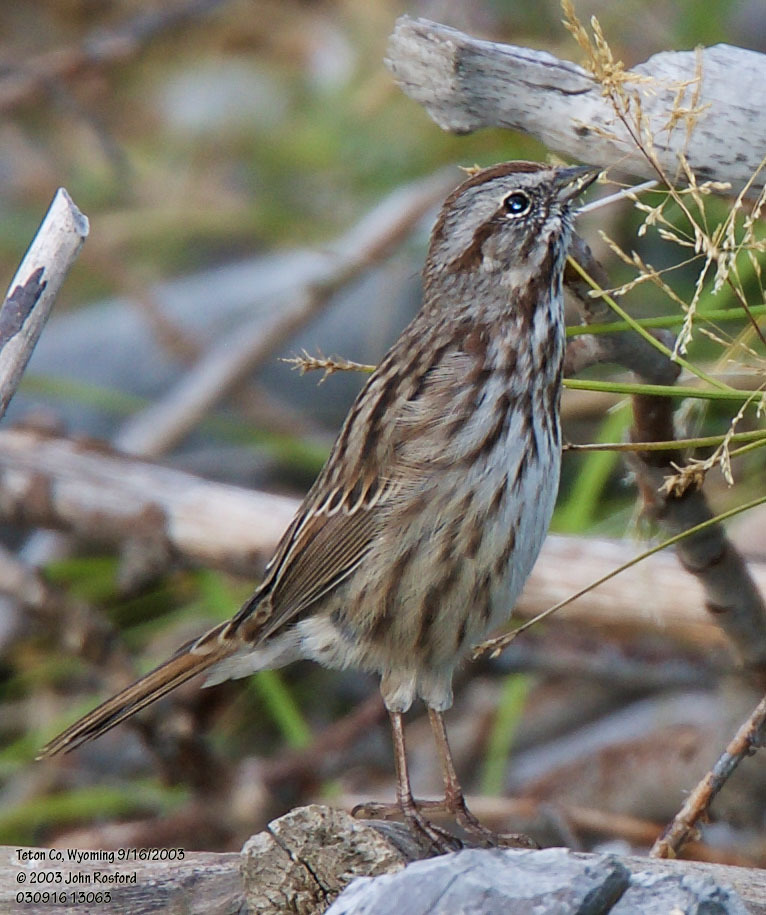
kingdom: Animalia
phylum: Chordata
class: Aves
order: Passeriformes
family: Passerellidae
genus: Melospiza
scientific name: Melospiza melodia
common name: Song sparrow
